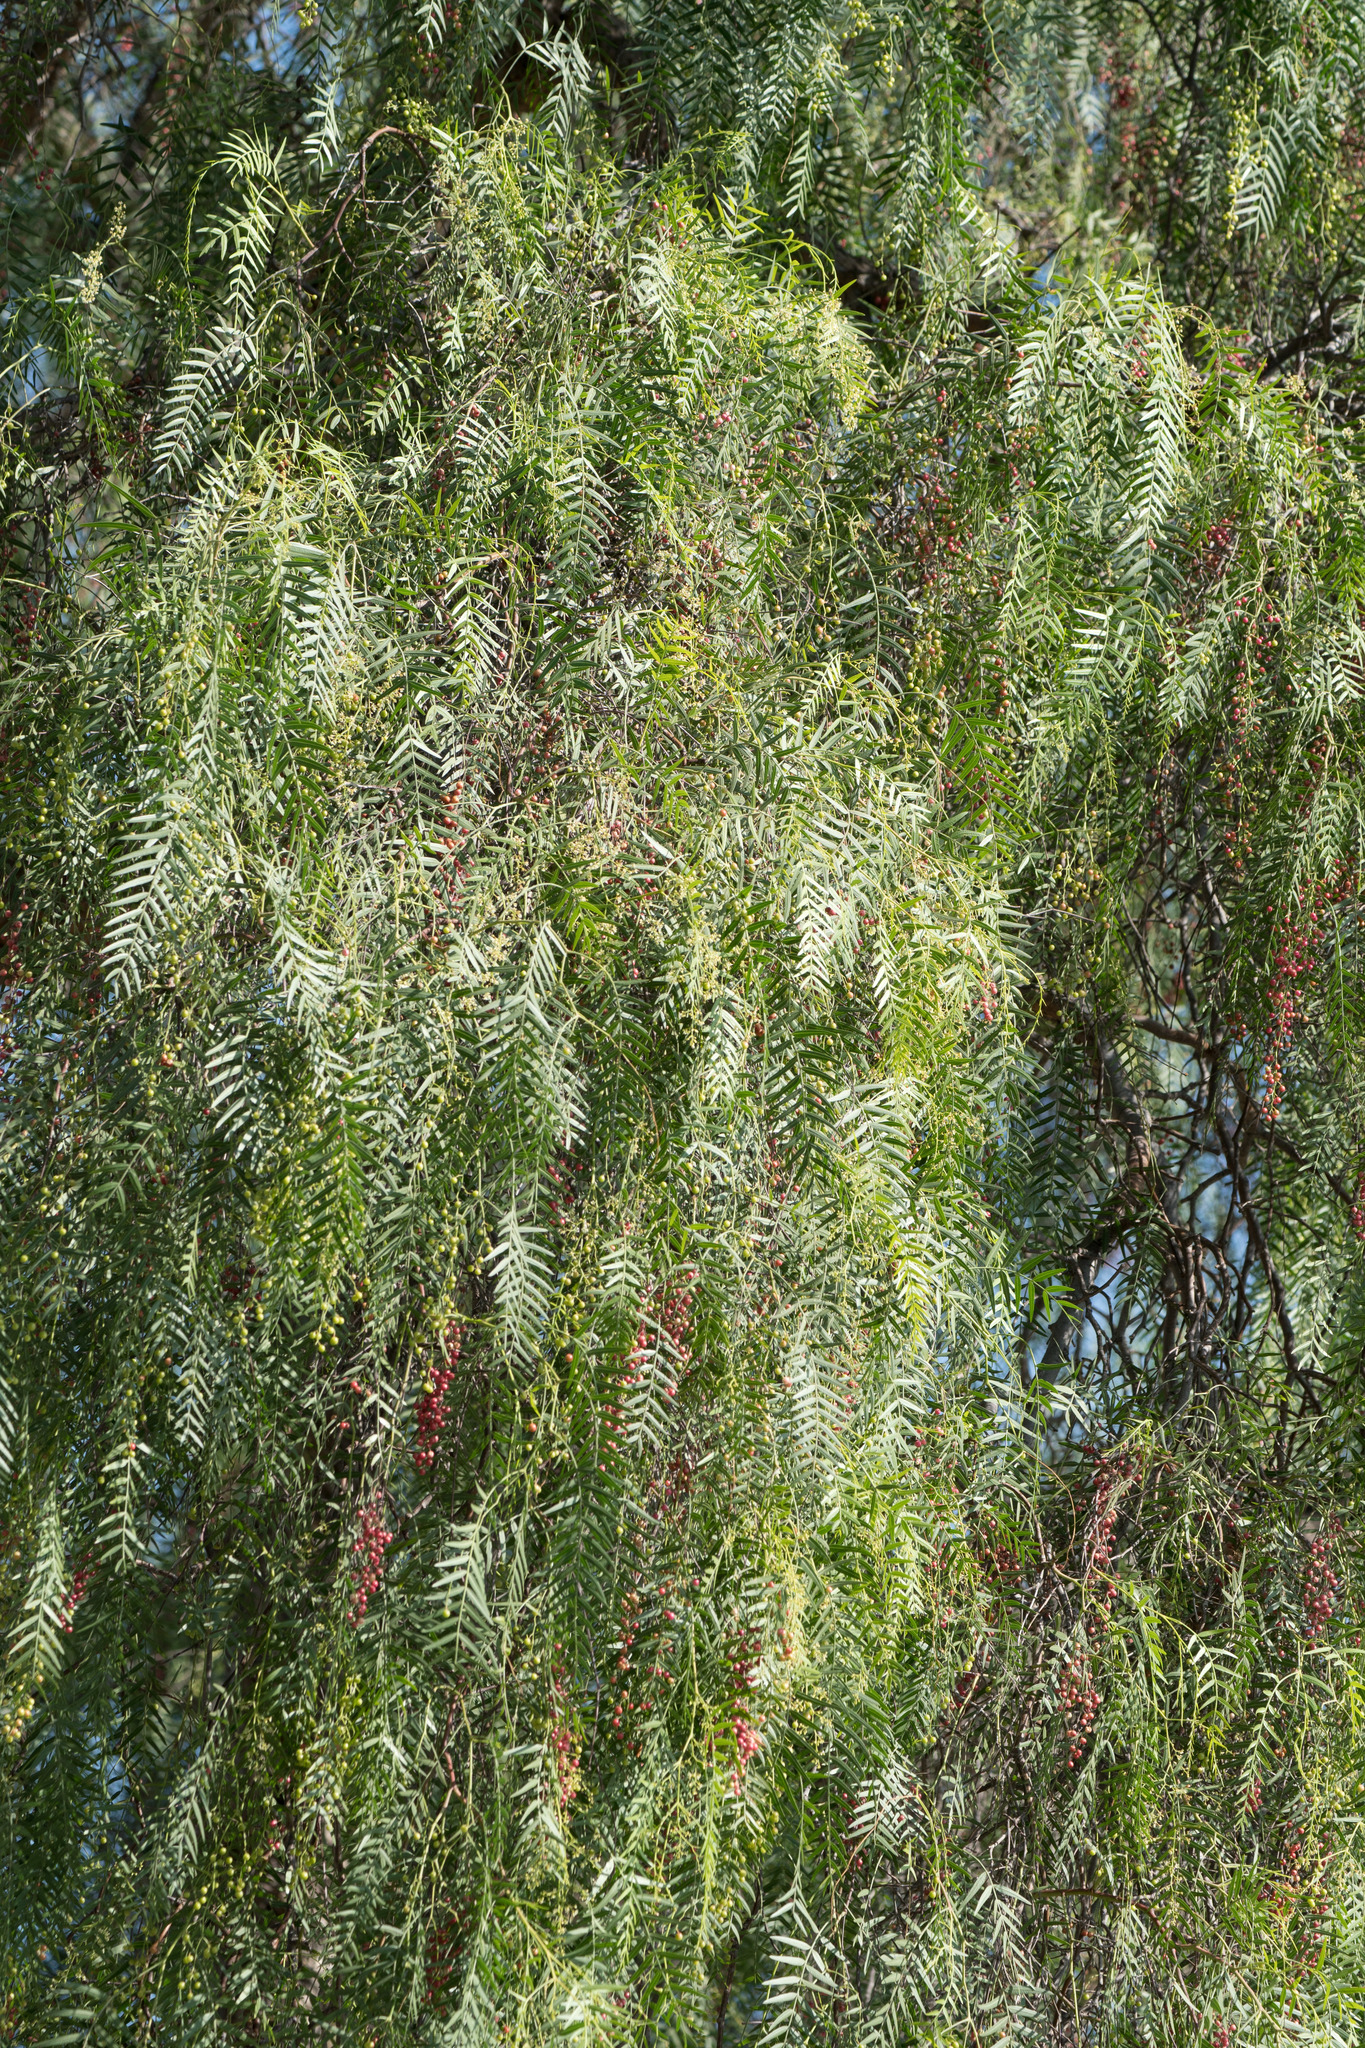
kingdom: Plantae
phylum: Tracheophyta
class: Magnoliopsida
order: Sapindales
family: Anacardiaceae
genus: Schinus
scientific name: Schinus molle
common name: Peruvian peppertree
